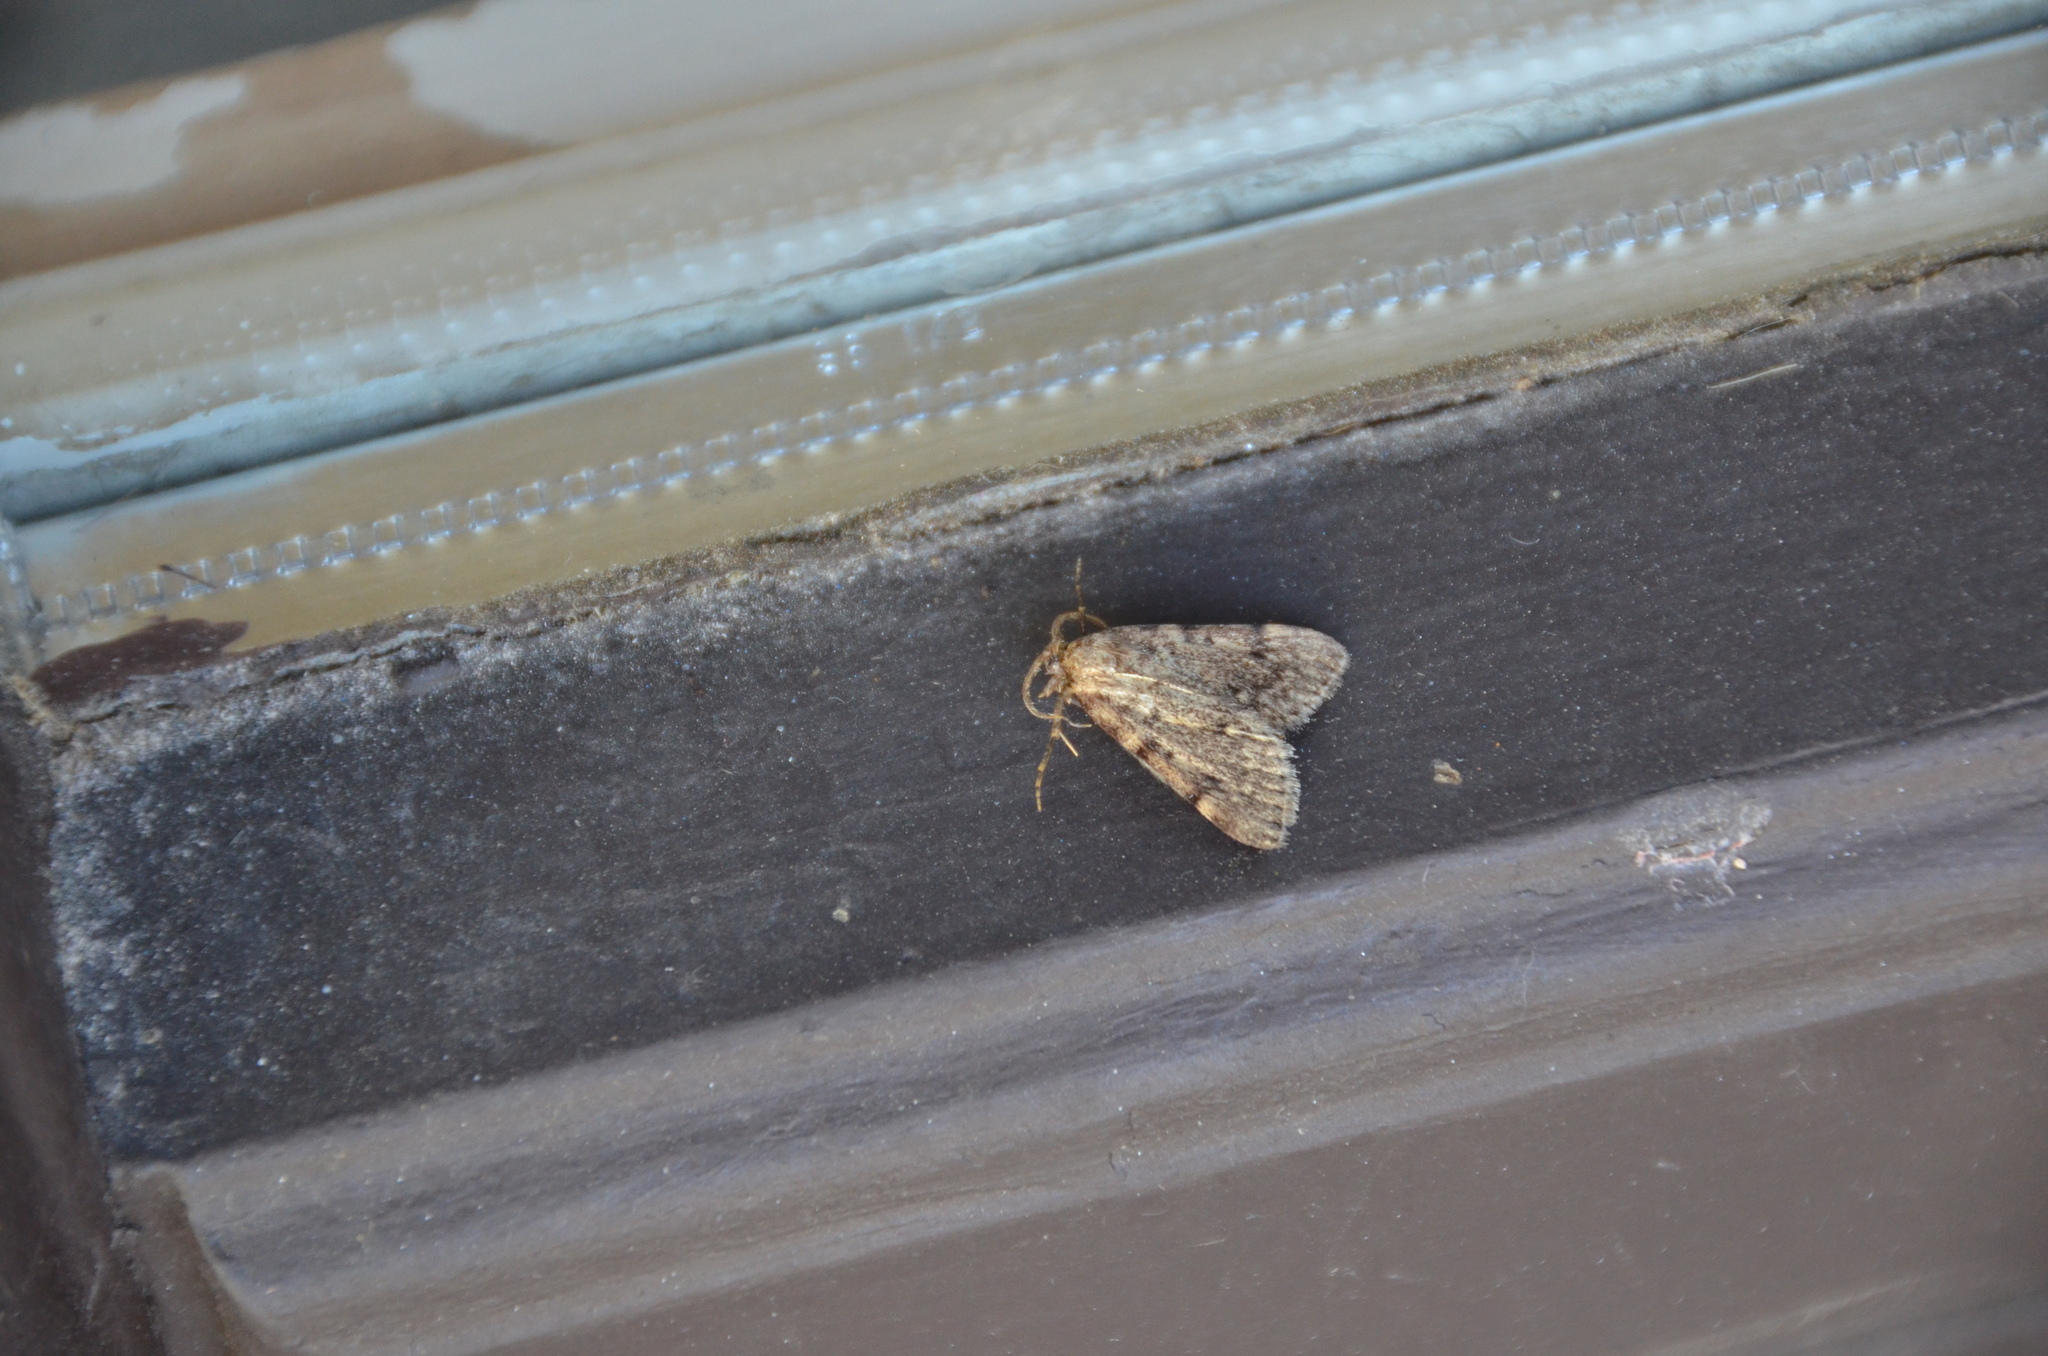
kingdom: Animalia
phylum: Arthropoda
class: Insecta
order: Lepidoptera
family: Pyralidae
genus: Aglossa
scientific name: Aglossa pinguinalis
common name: Large tabby
